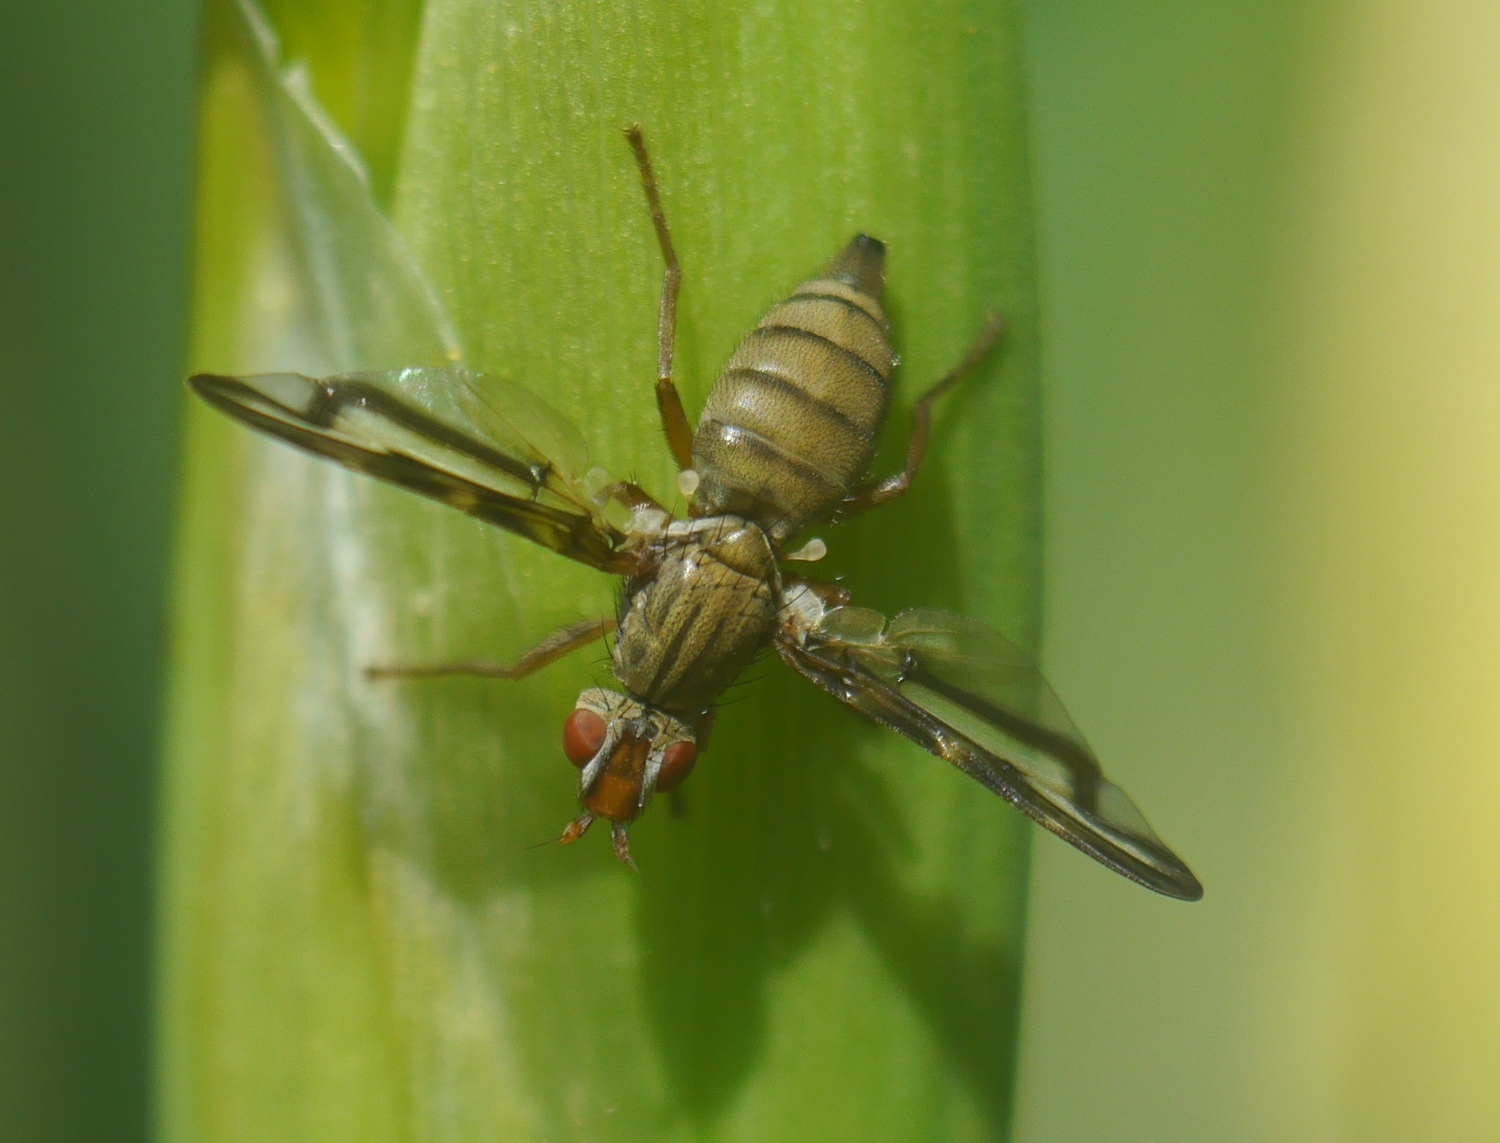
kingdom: Animalia
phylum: Arthropoda
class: Insecta
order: Diptera
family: Ulidiidae
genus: Otites
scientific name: Otites lamed
